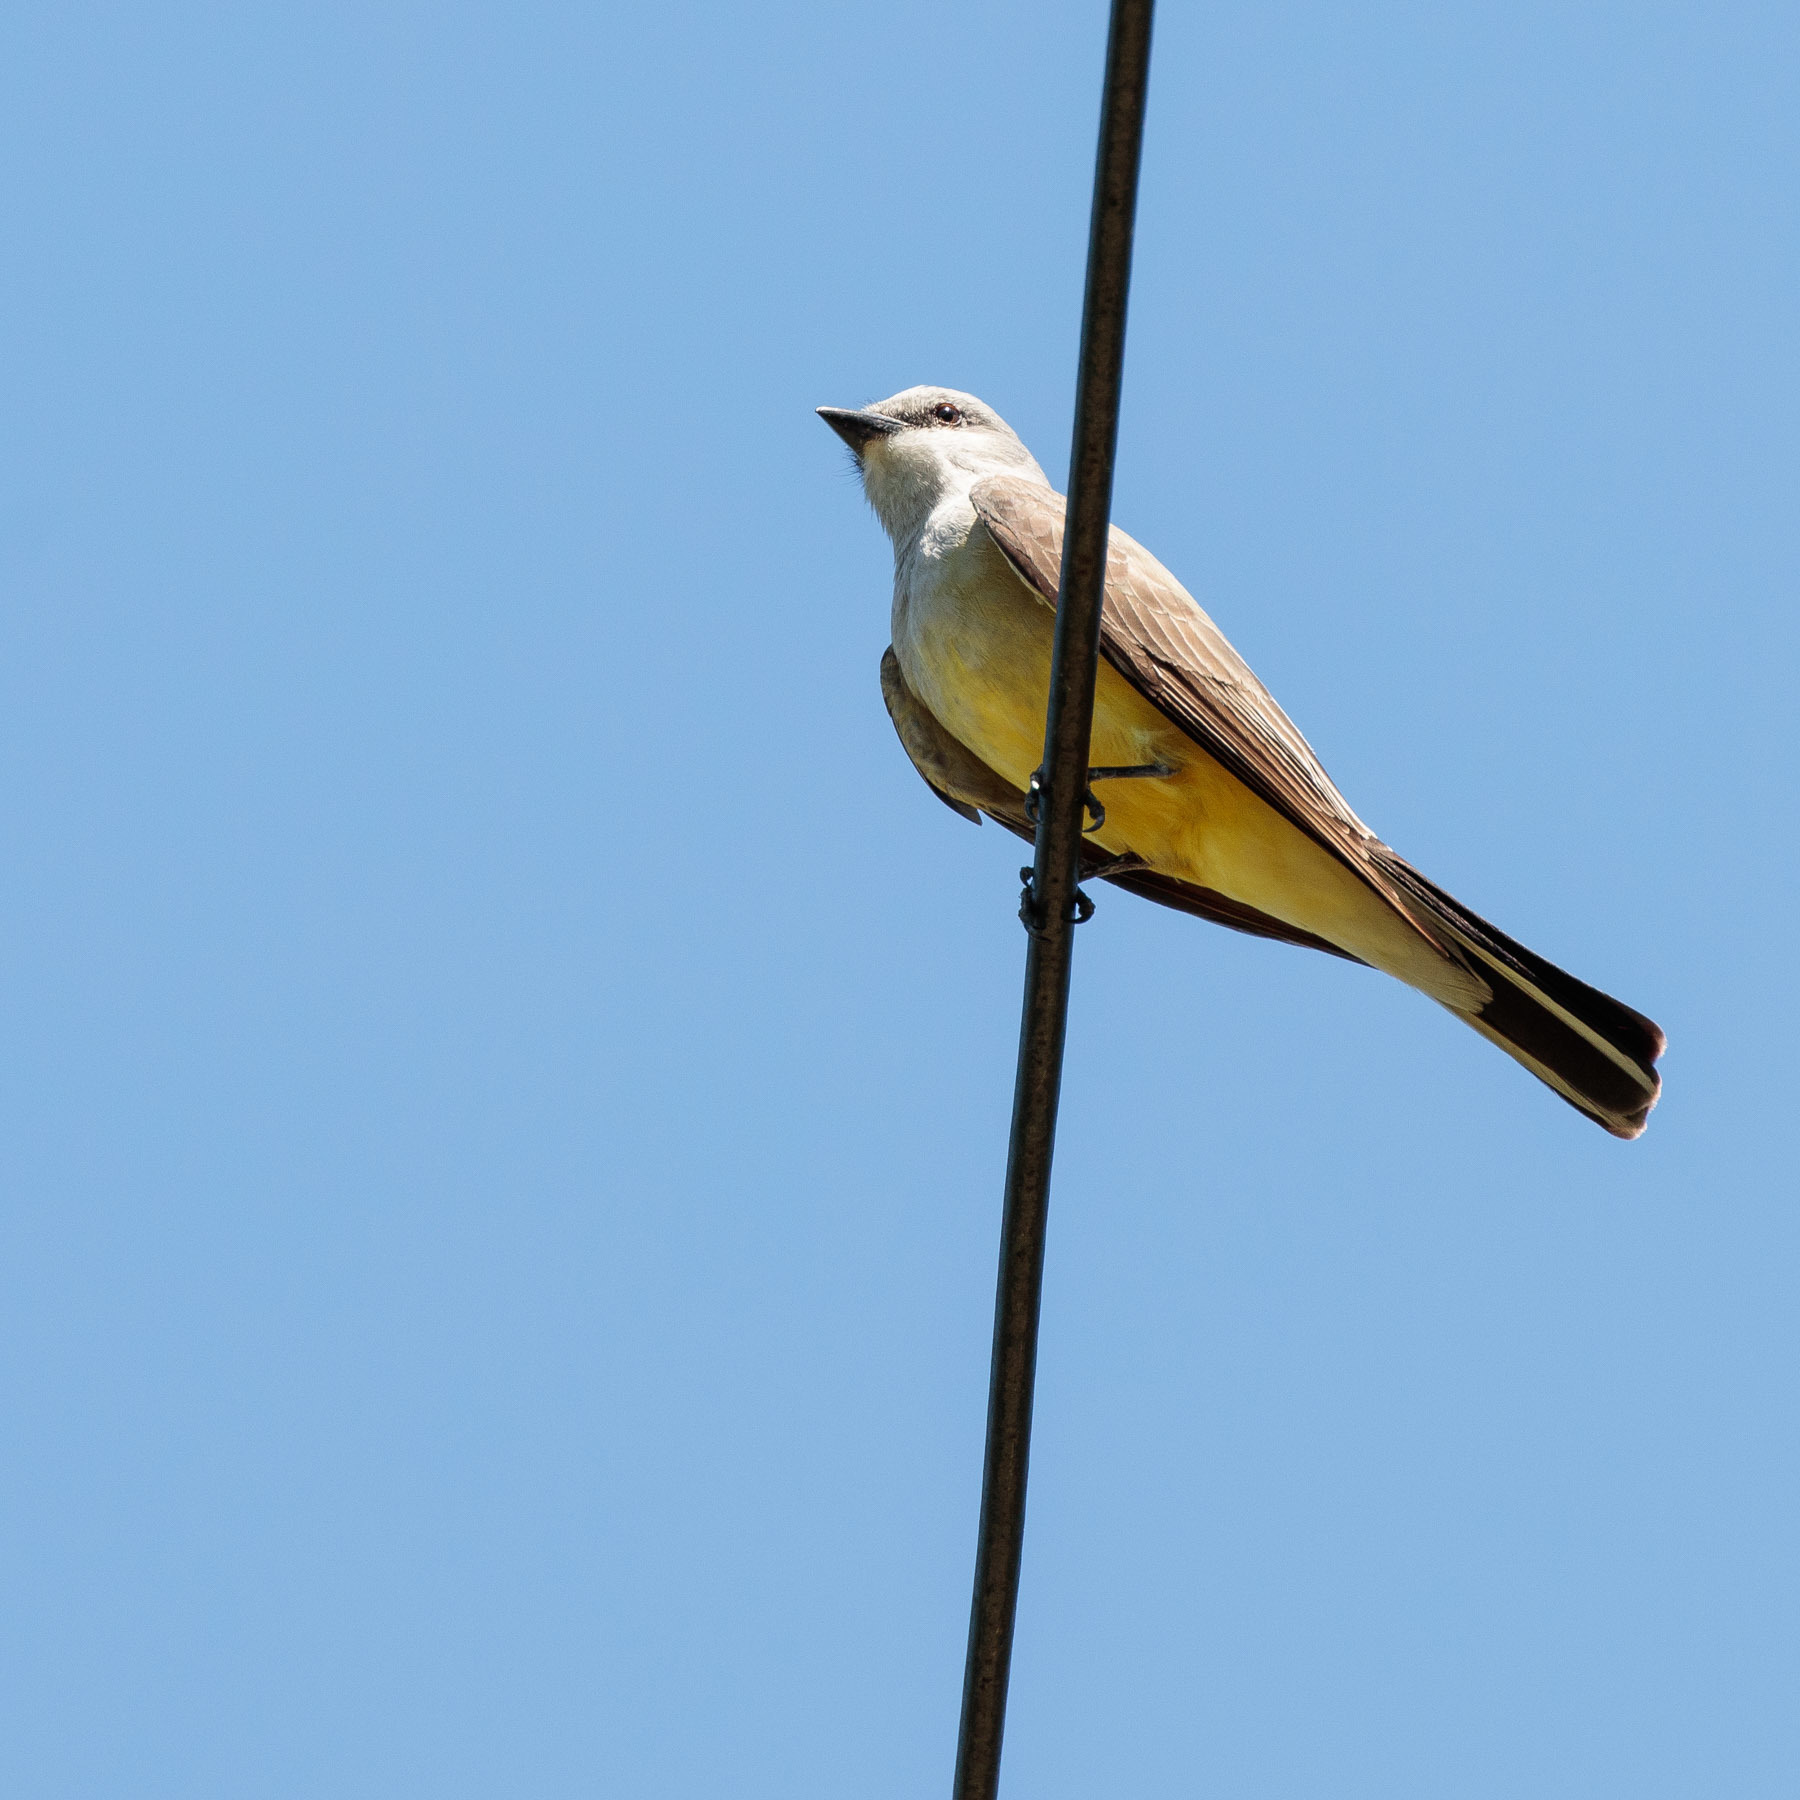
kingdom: Animalia
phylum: Chordata
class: Aves
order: Passeriformes
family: Tyrannidae
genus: Tyrannus
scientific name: Tyrannus verticalis
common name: Western kingbird
